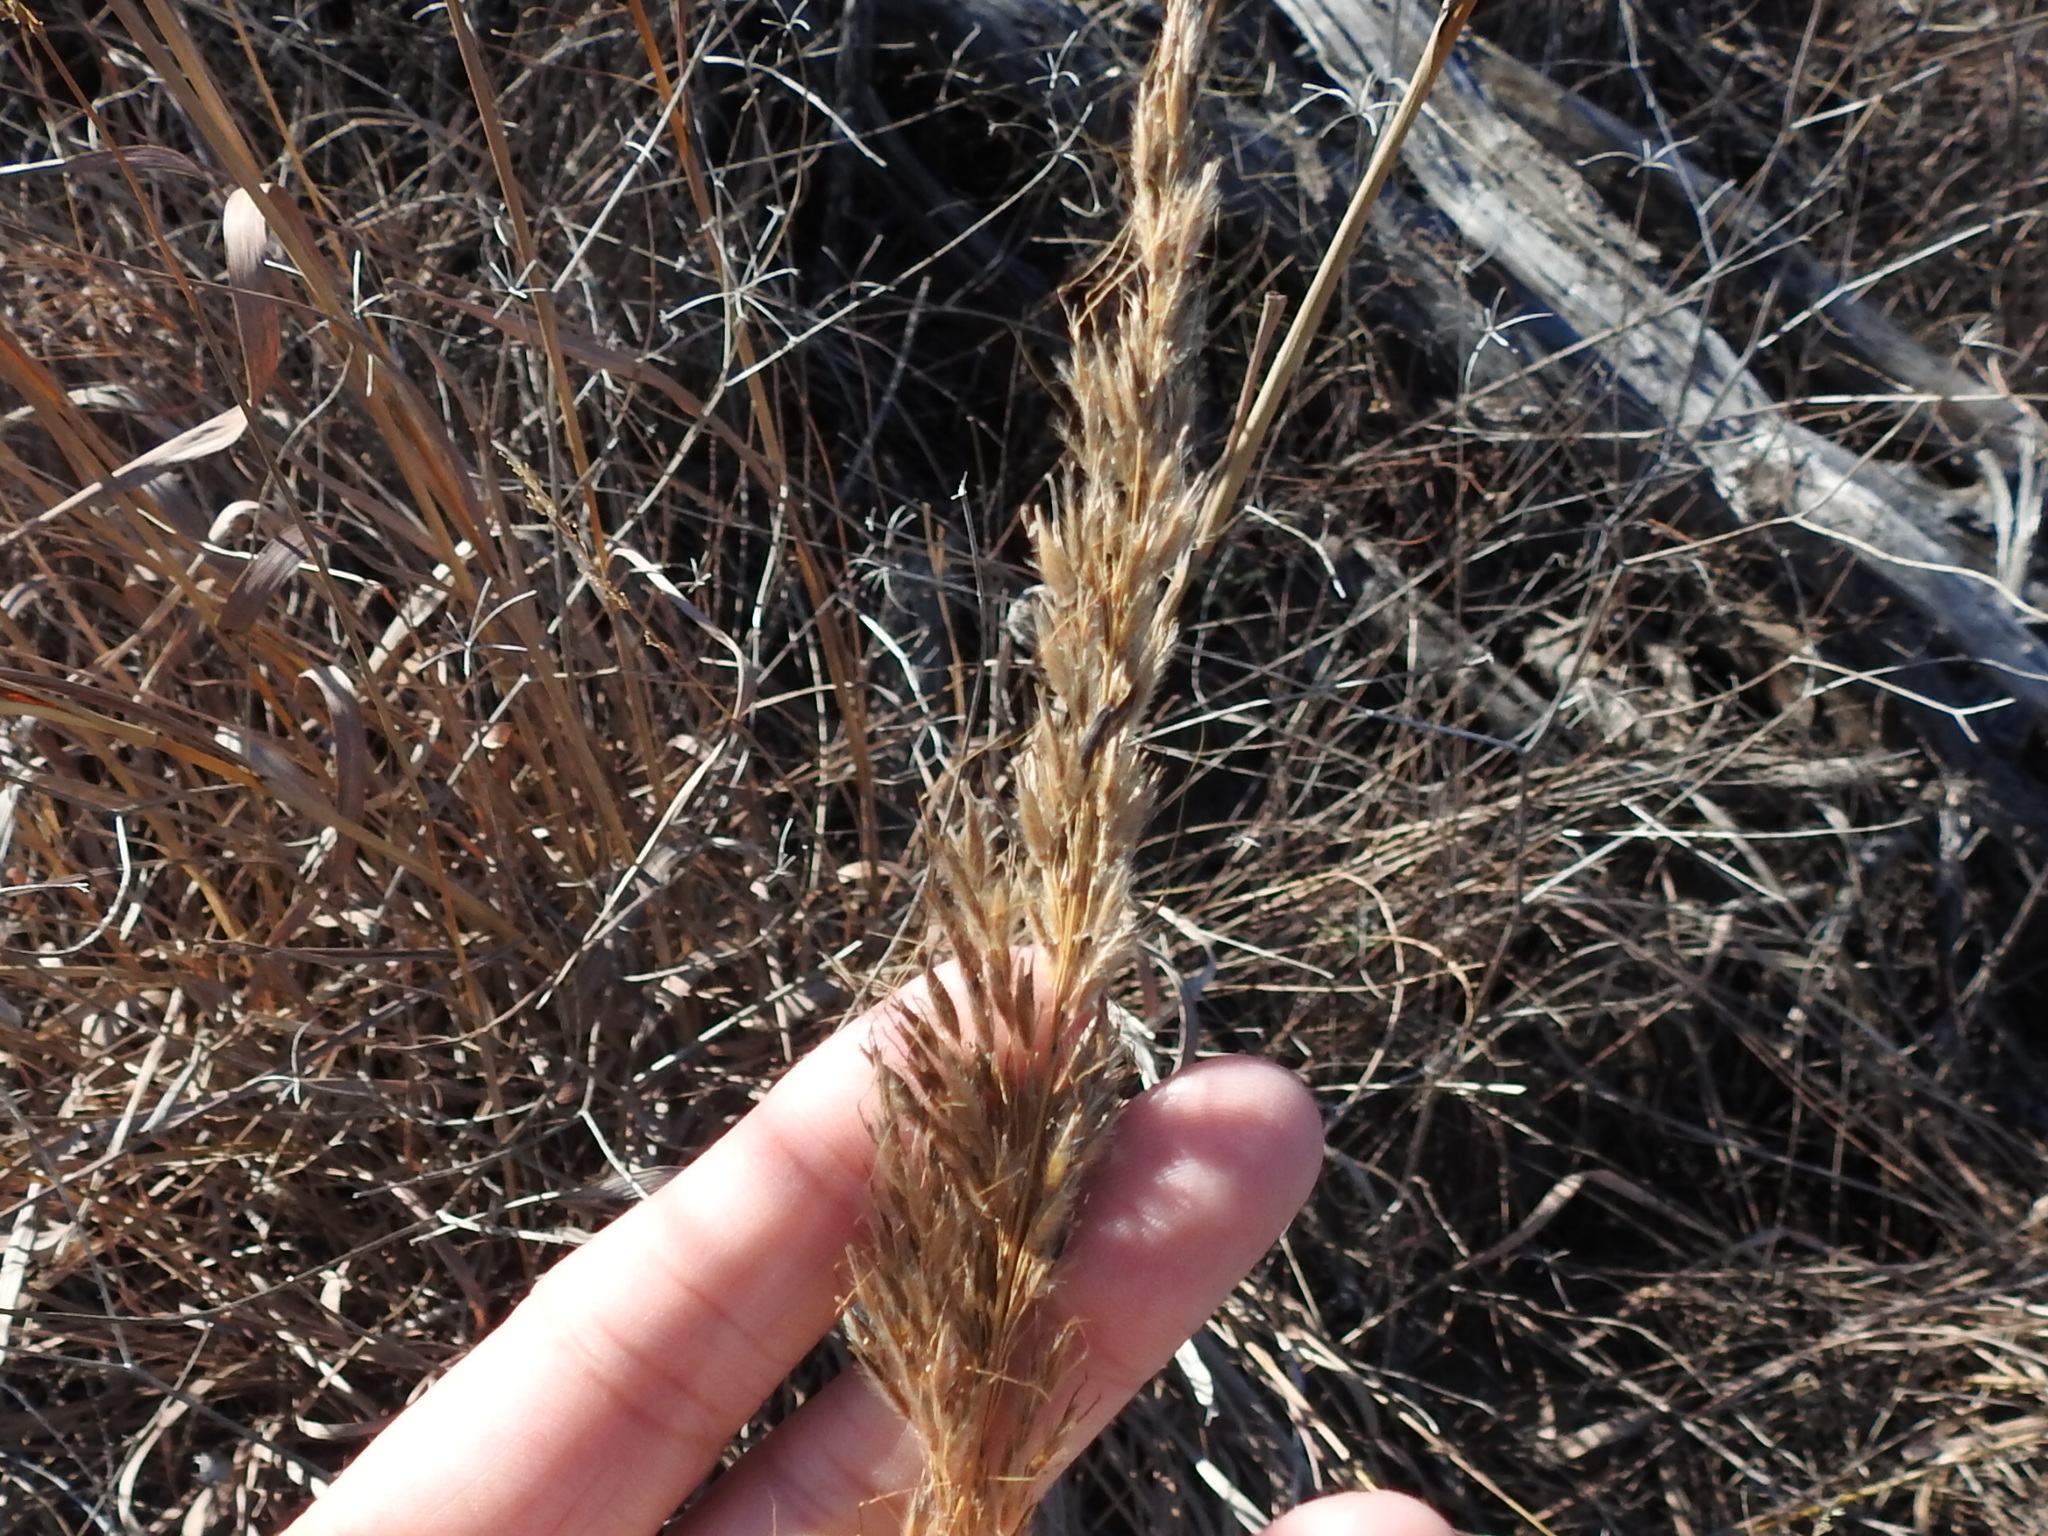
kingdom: Plantae
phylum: Tracheophyta
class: Liliopsida
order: Poales
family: Poaceae
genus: Sorghastrum
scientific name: Sorghastrum nutans
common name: Indian grass
